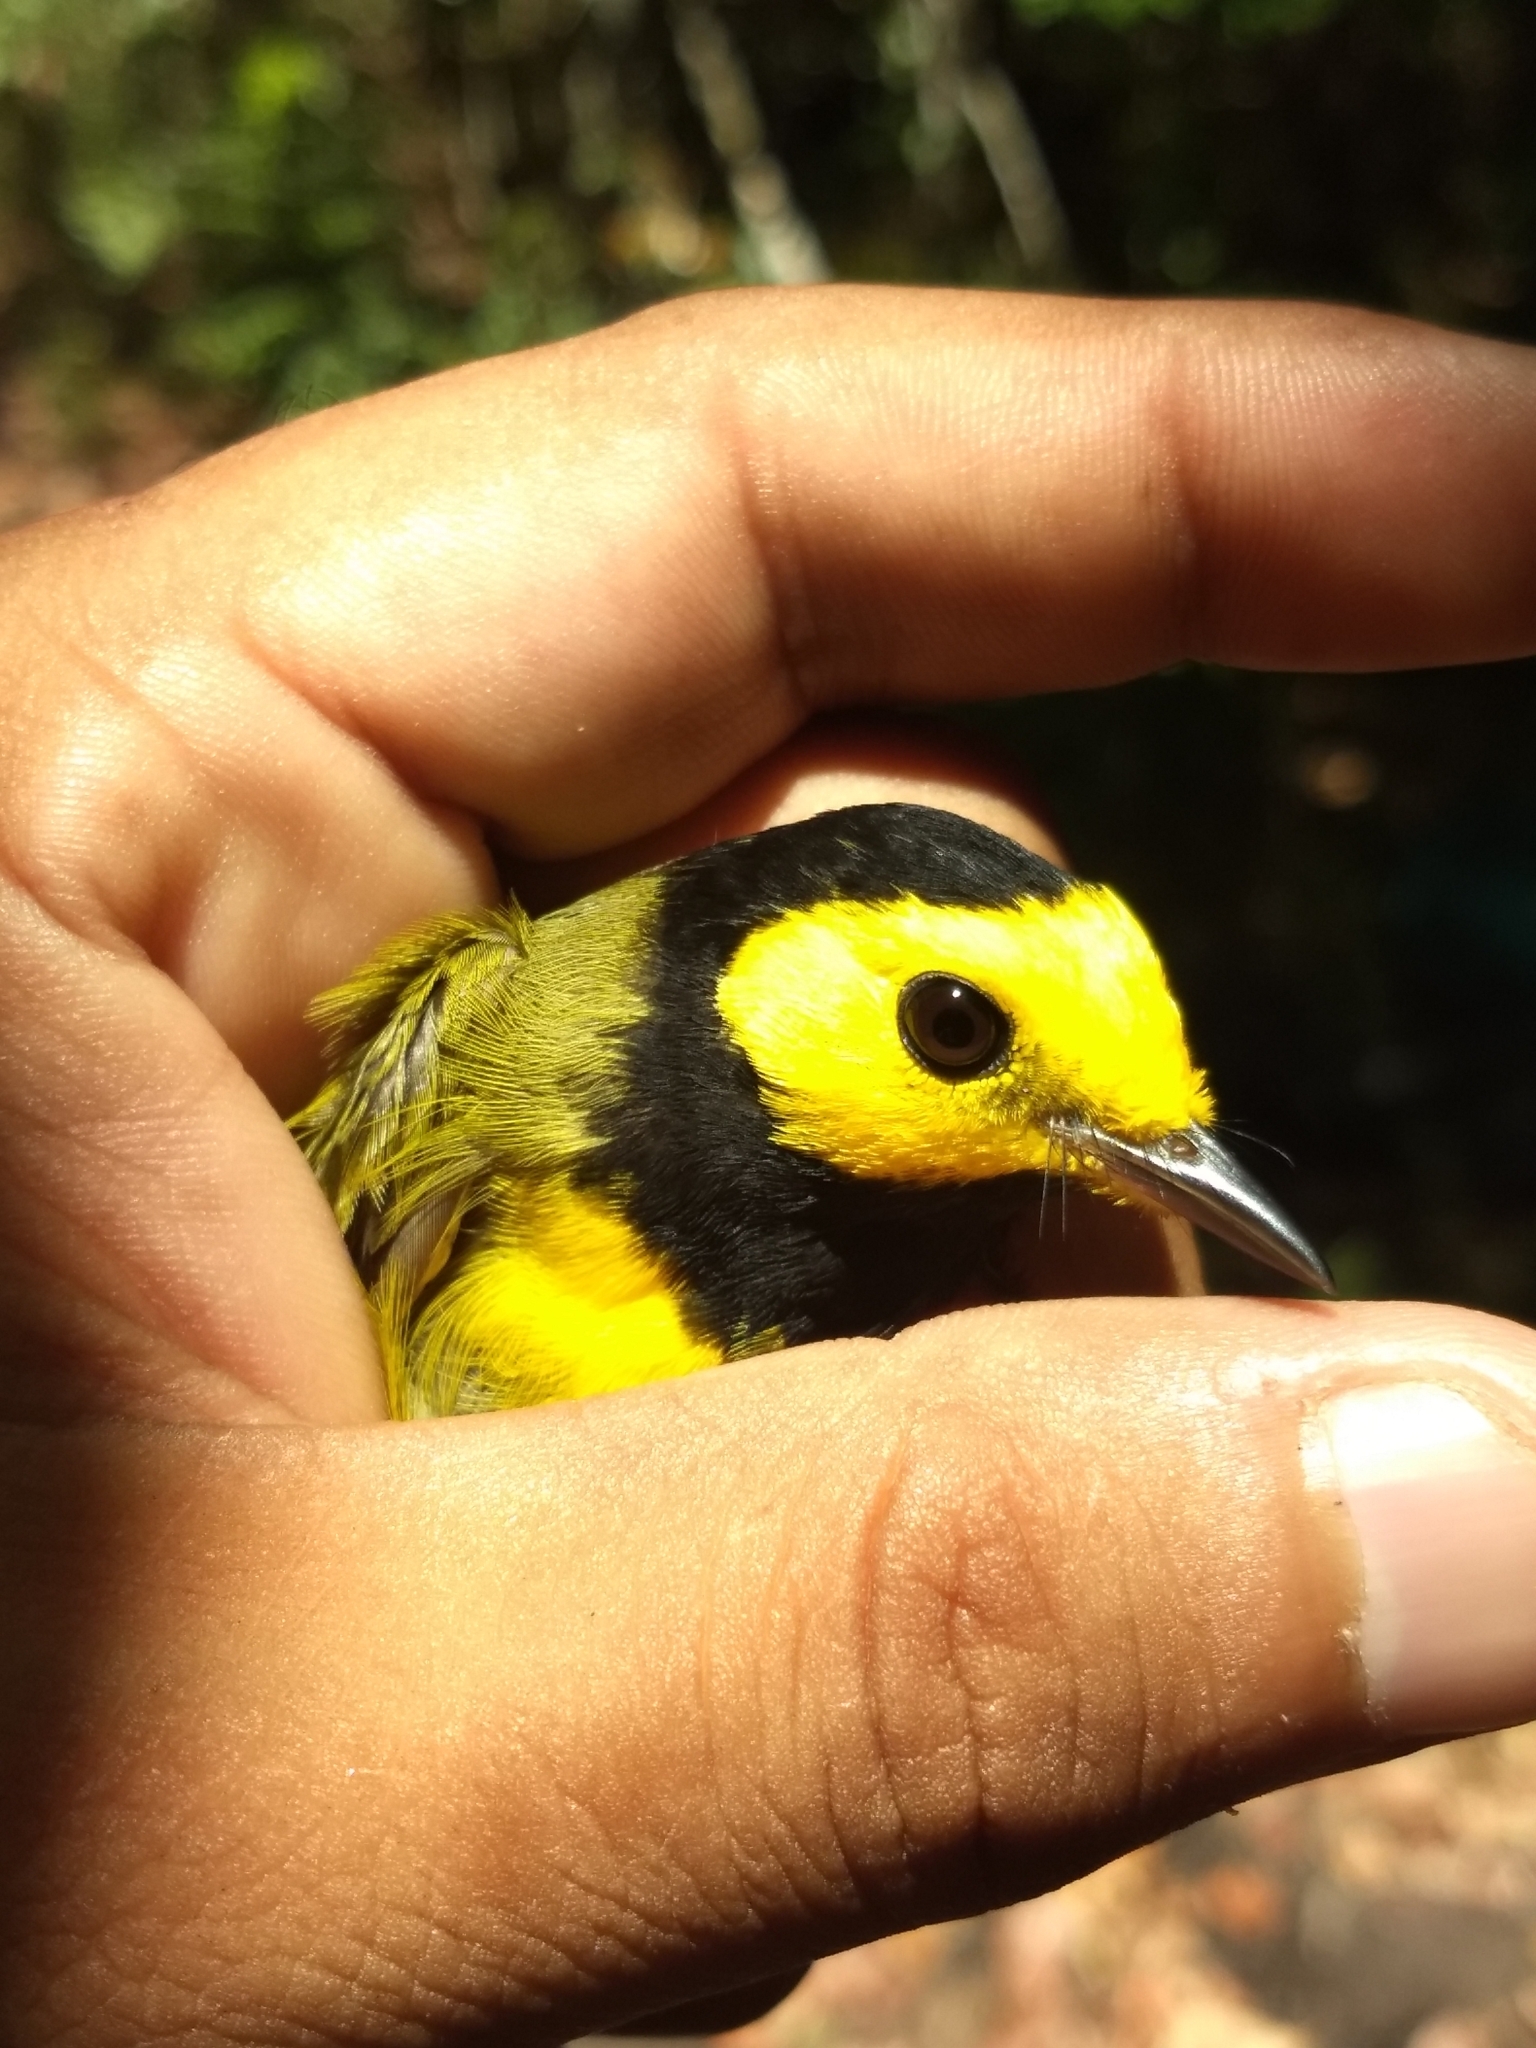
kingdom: Animalia
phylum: Chordata
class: Aves
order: Passeriformes
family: Parulidae
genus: Setophaga
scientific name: Setophaga citrina
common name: Hooded warbler
